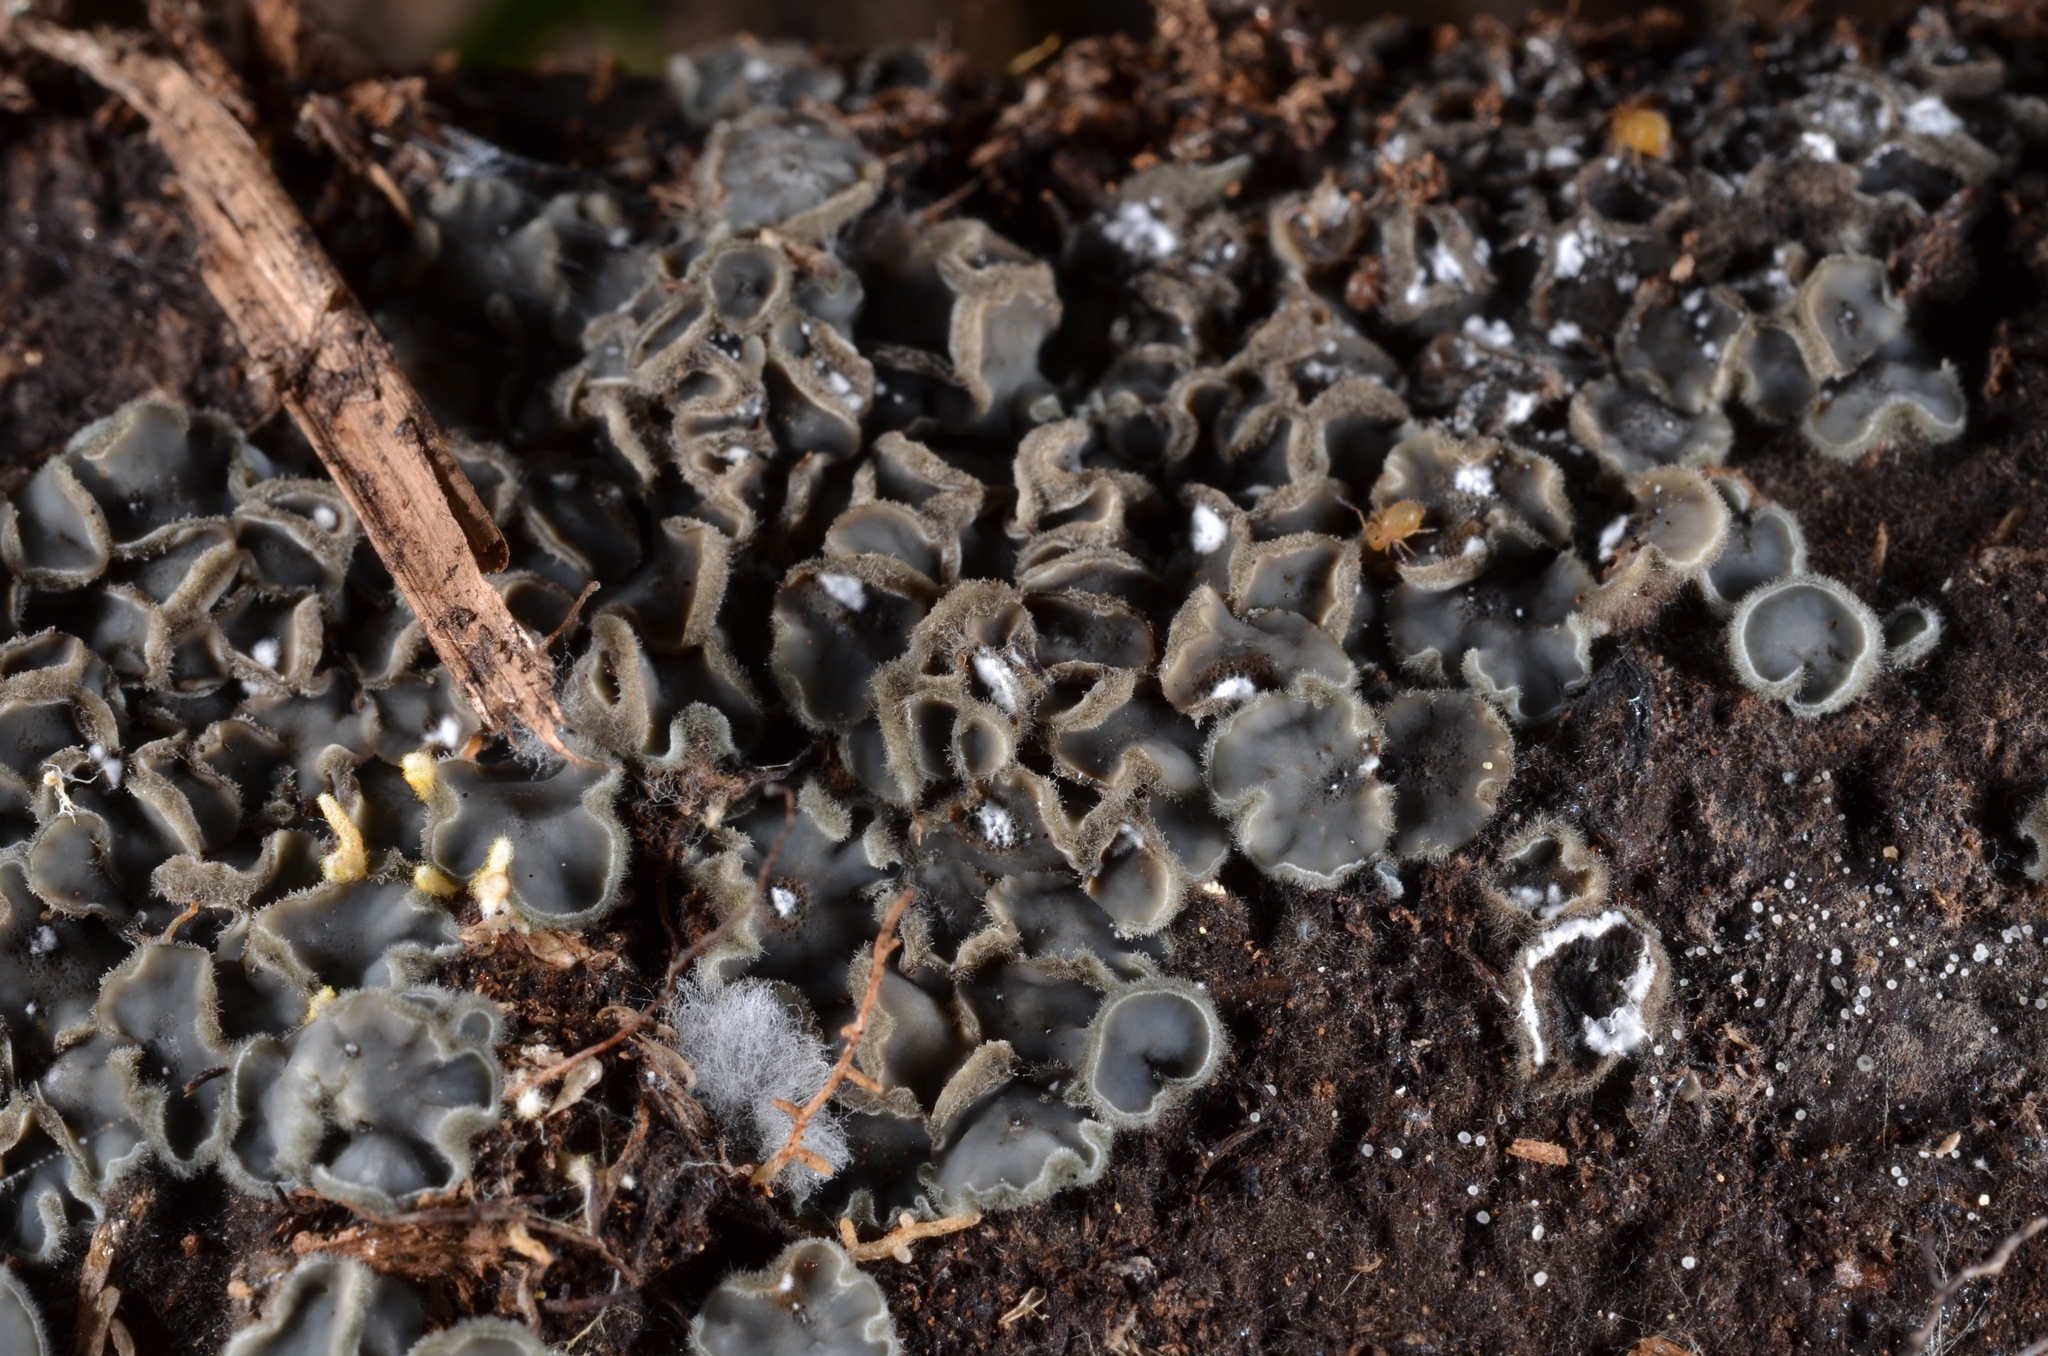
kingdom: Fungi
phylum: Ascomycota
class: Leotiomycetes
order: Helotiales
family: Mollisiaceae
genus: Mollisia
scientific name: Mollisia olivascens
